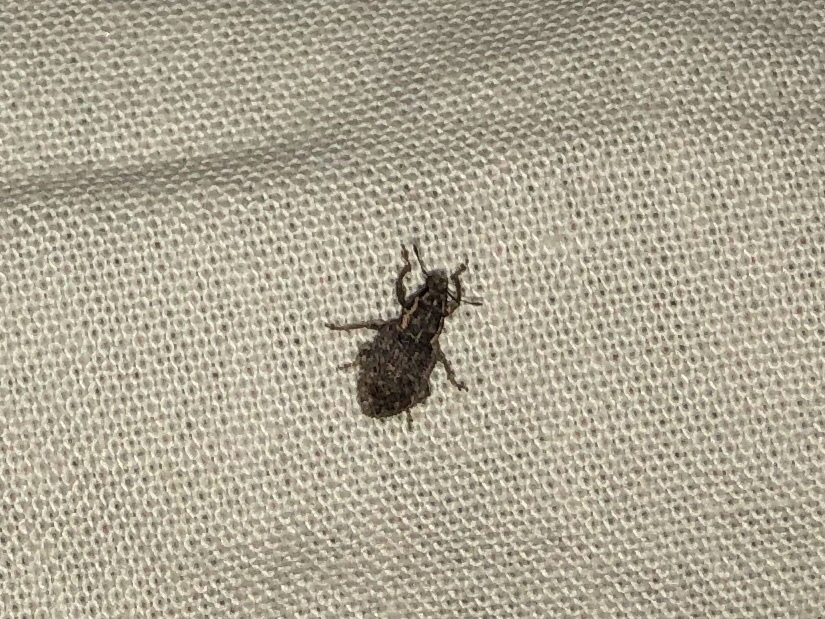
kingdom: Animalia
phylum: Arthropoda
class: Insecta
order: Coleoptera
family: Curculionidae
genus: Sitona
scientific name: Sitona hispidulus
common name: Clover weevil
